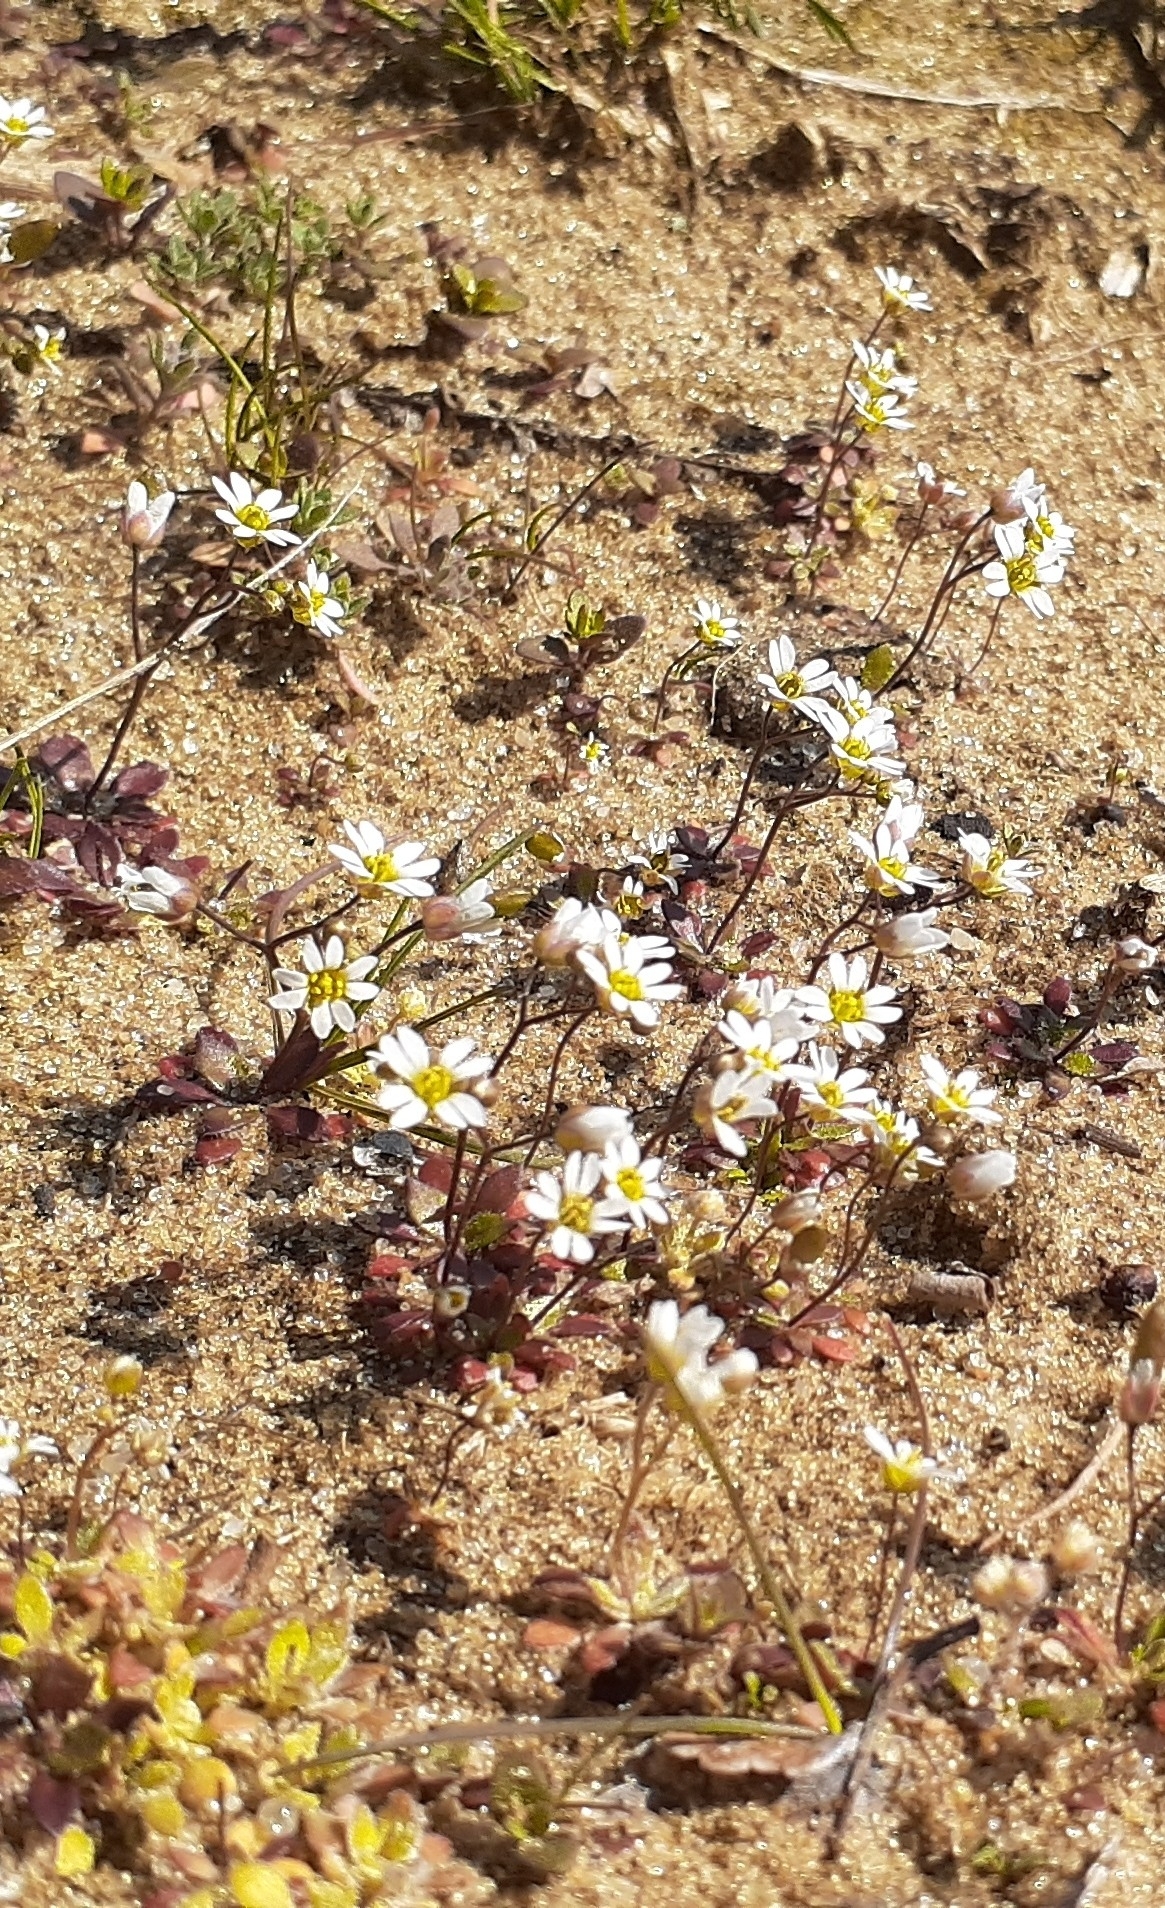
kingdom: Plantae
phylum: Tracheophyta
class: Magnoliopsida
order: Brassicales
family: Brassicaceae
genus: Draba
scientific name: Draba verna
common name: Spring draba
